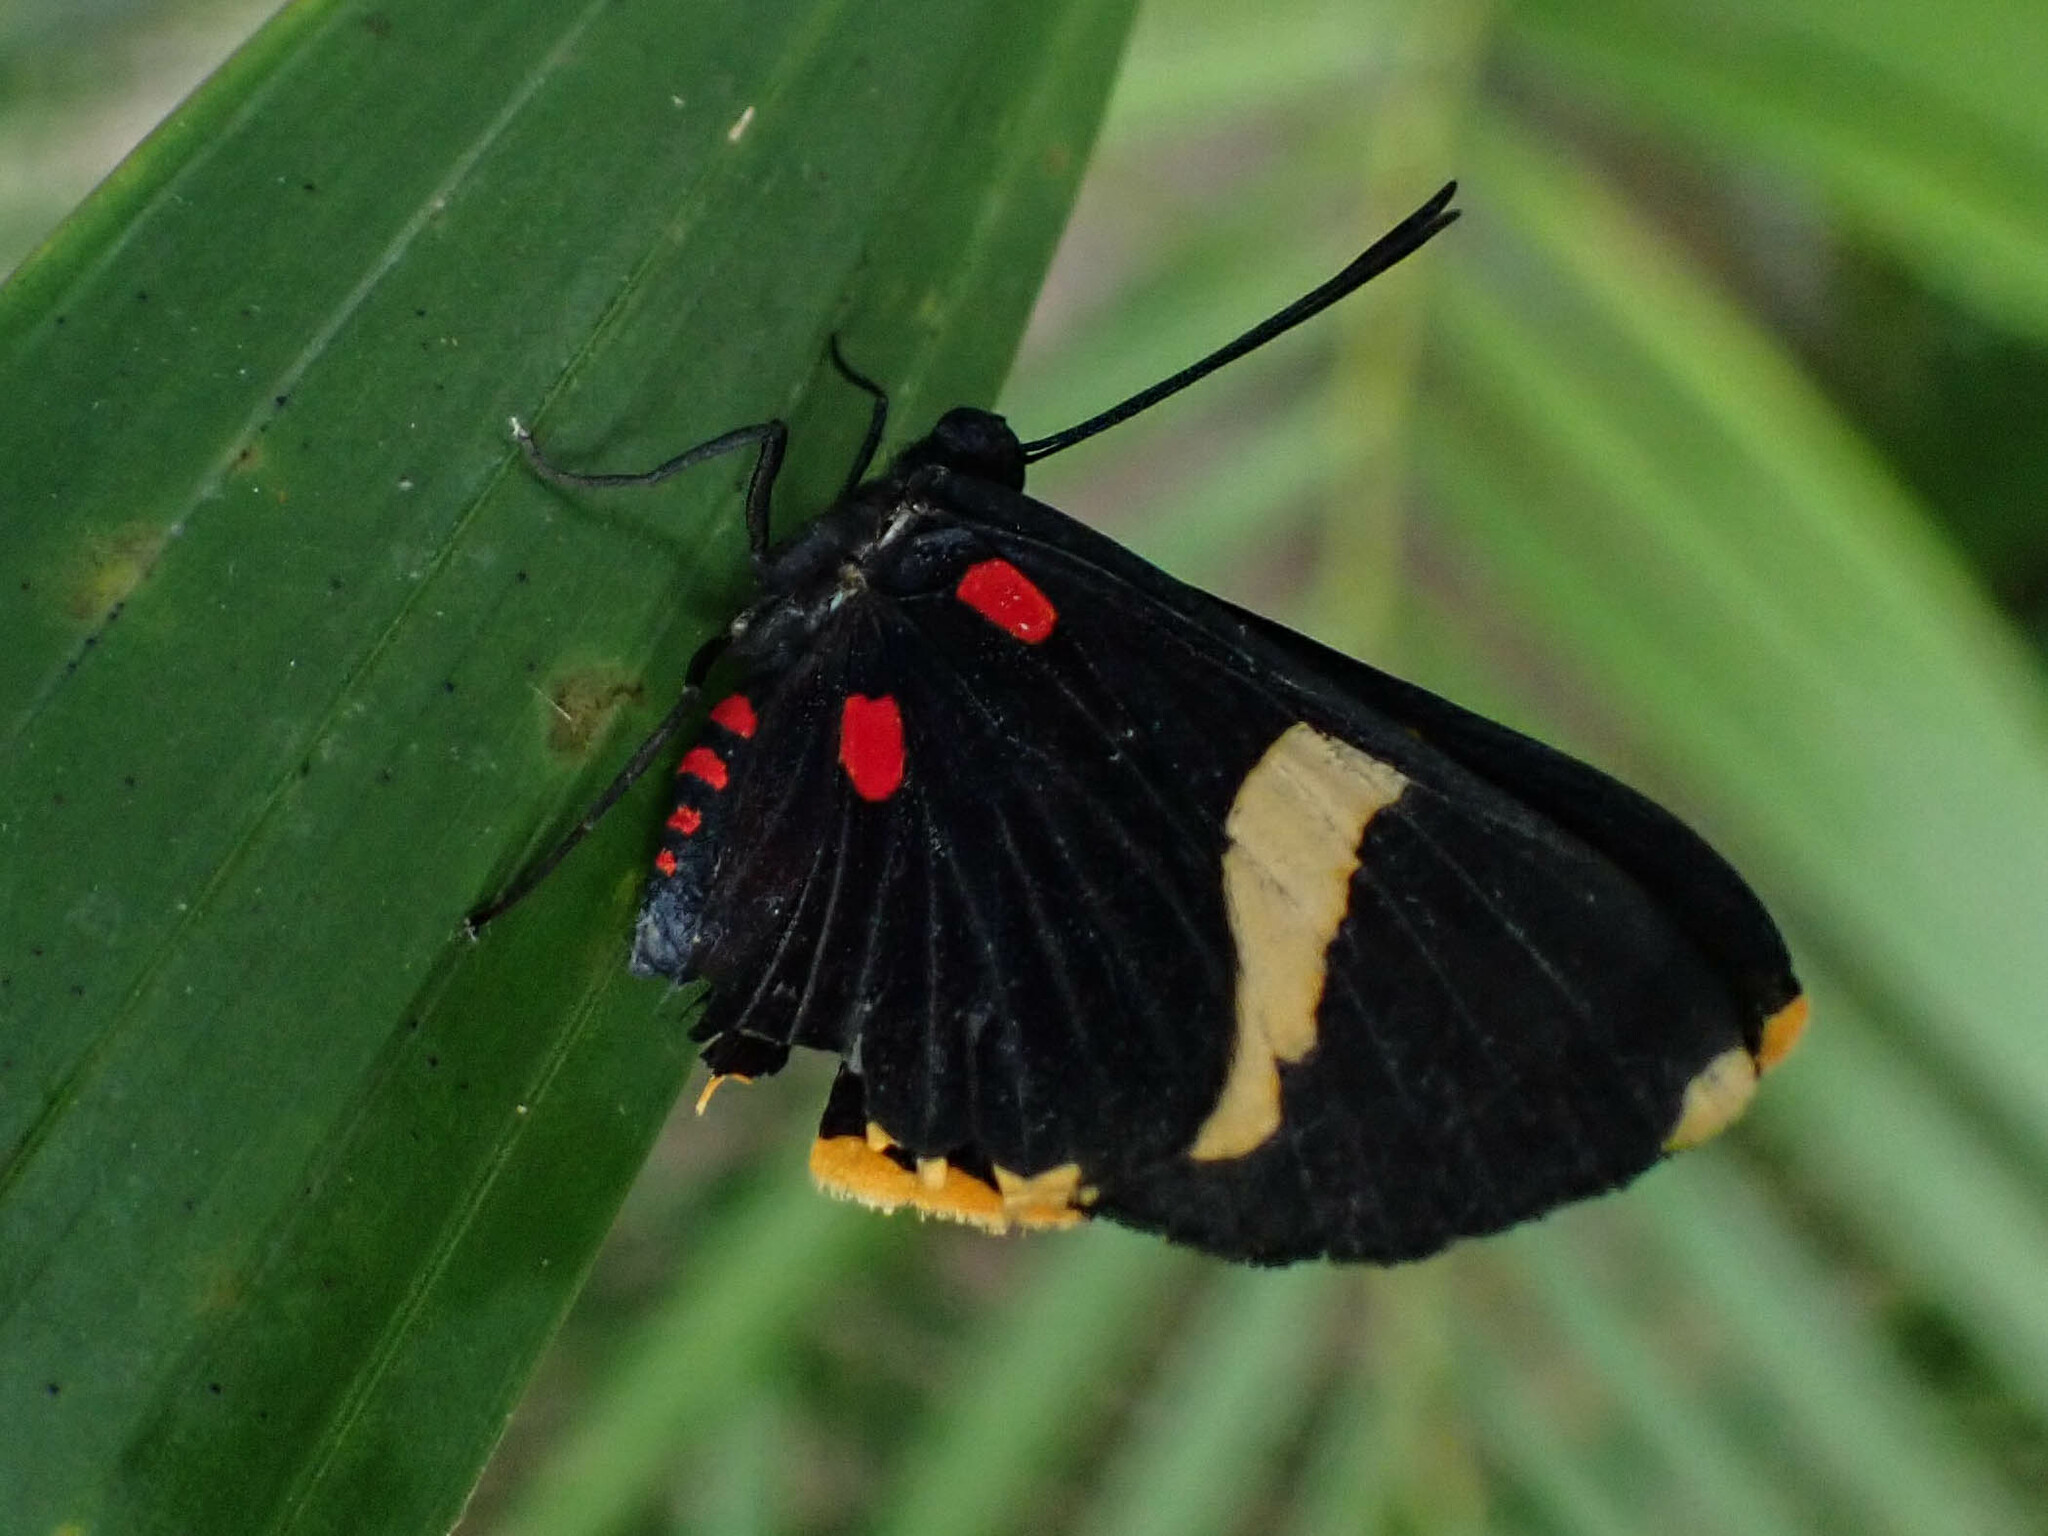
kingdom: Animalia
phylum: Arthropoda
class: Insecta
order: Lepidoptera
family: Lycaenidae
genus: Melanis
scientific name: Melanis electron
